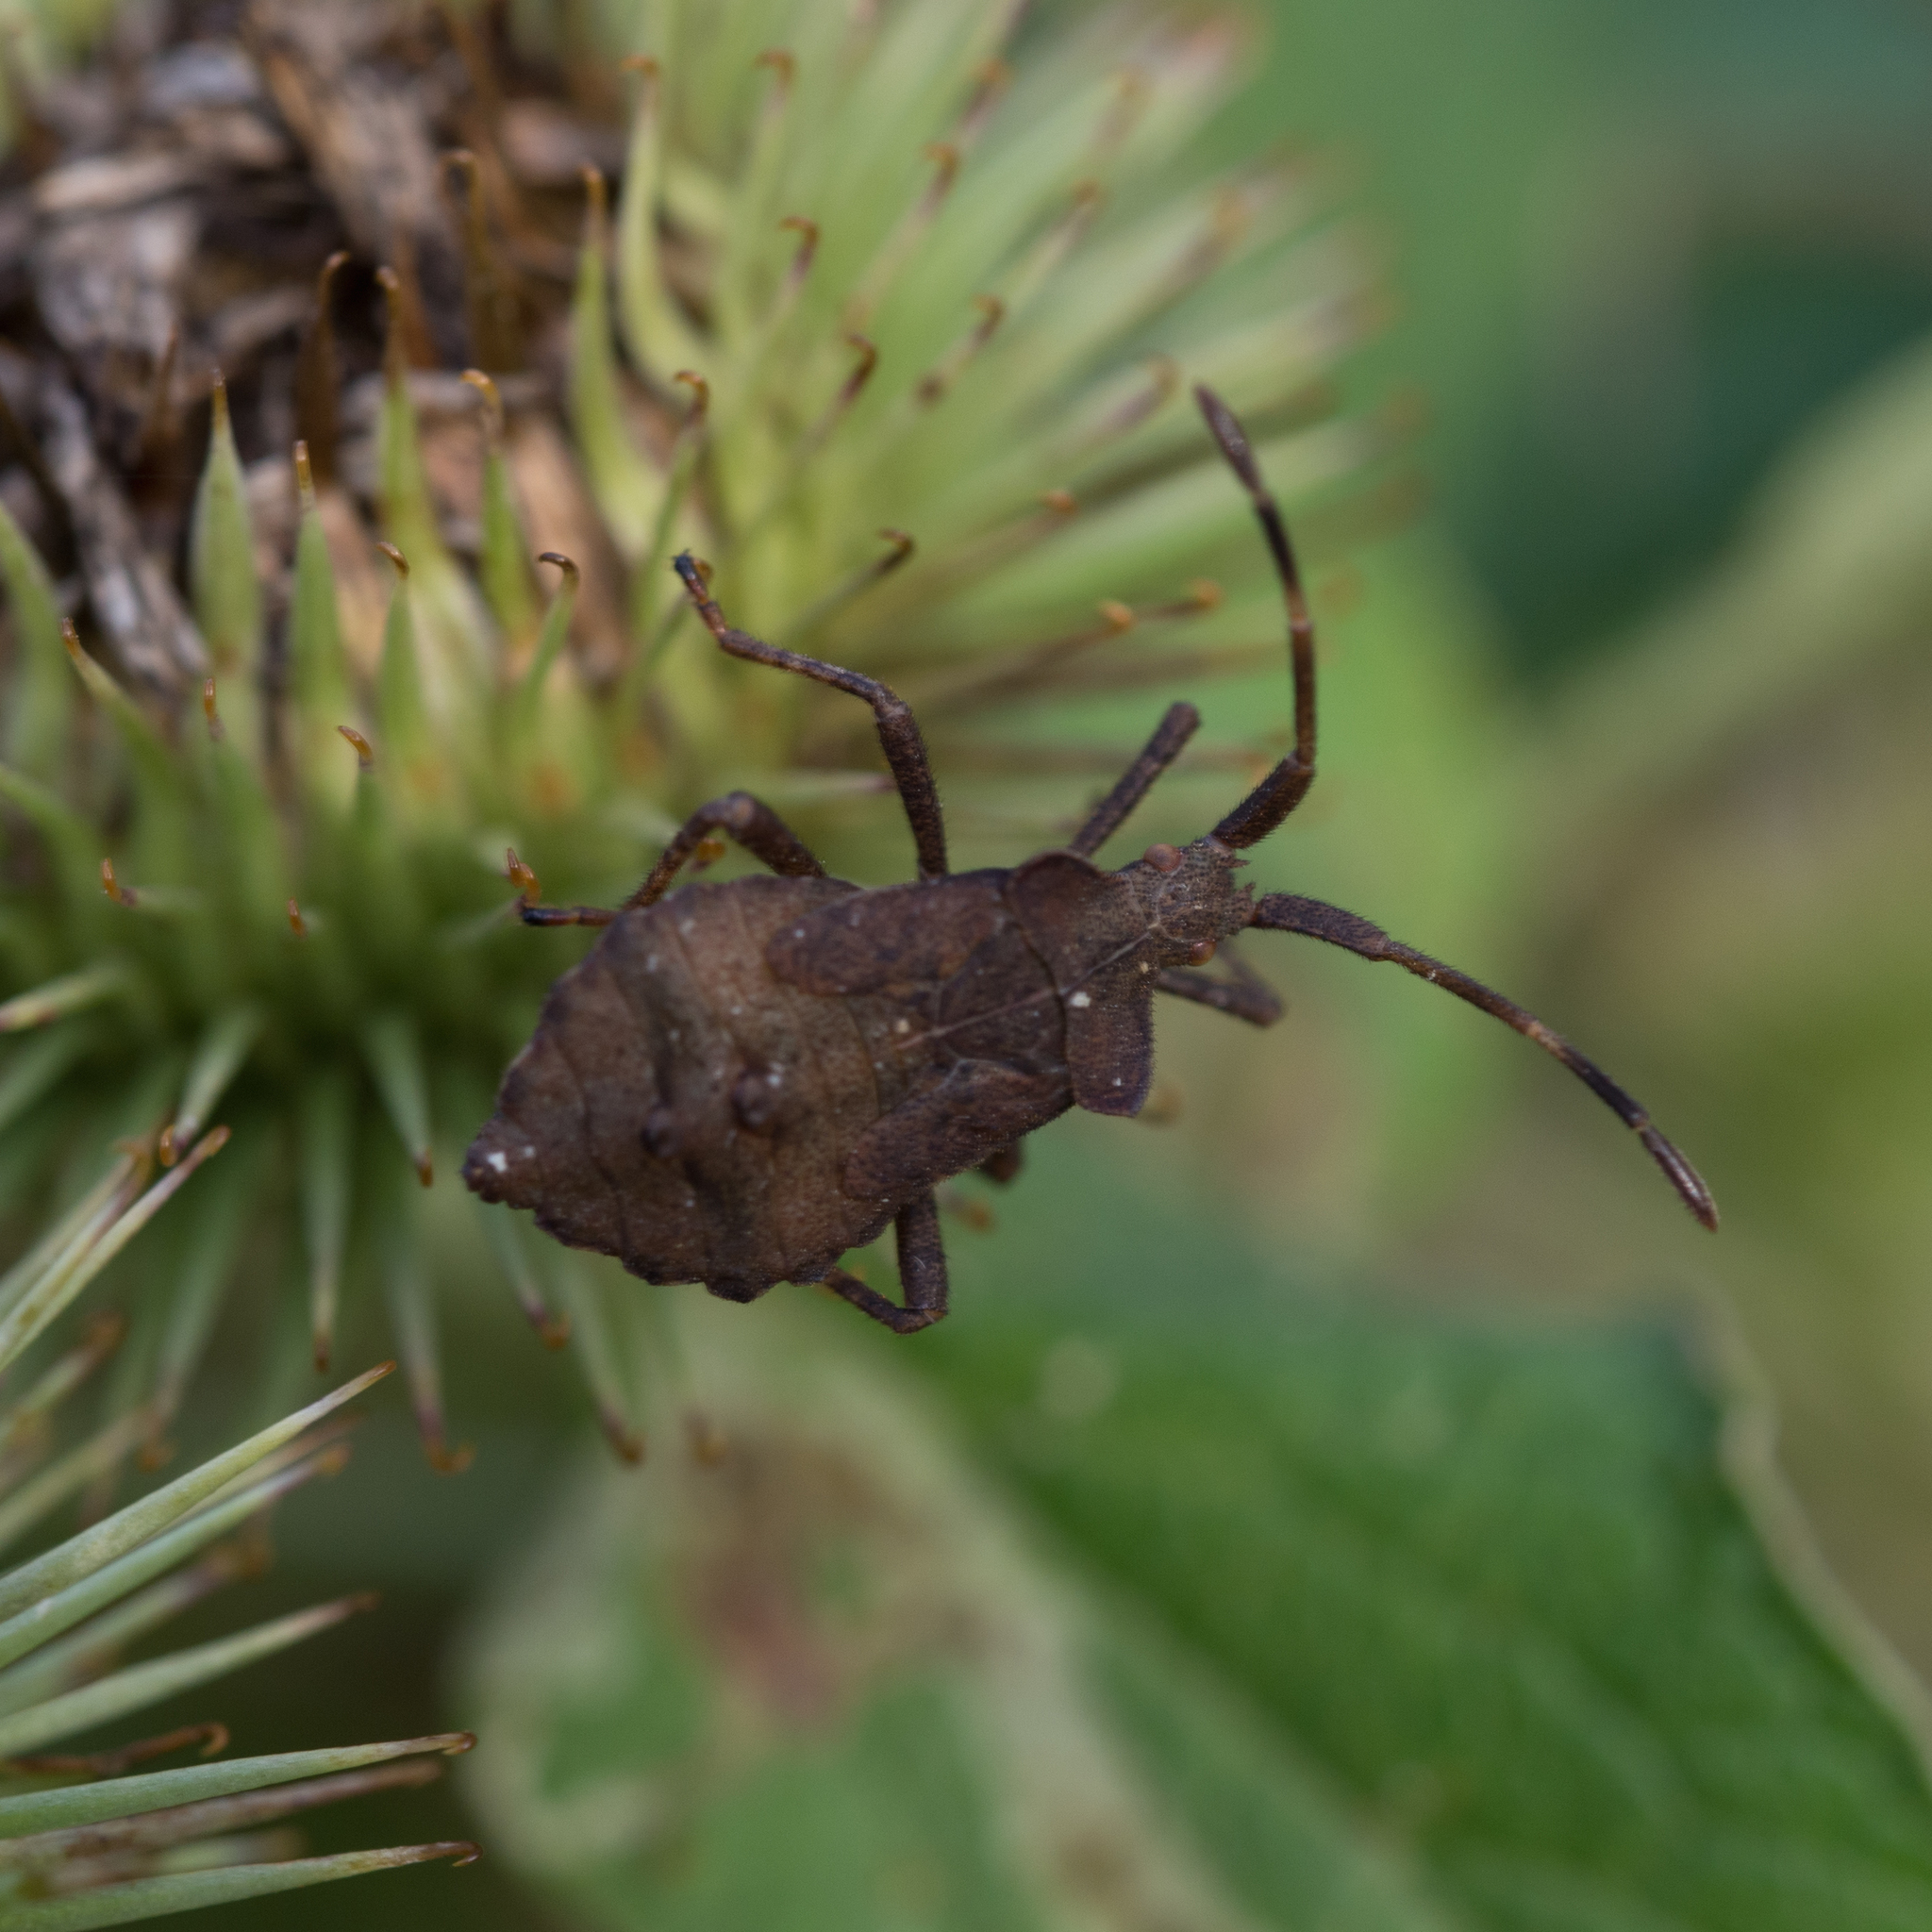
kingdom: Animalia
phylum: Arthropoda
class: Insecta
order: Hemiptera
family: Coreidae
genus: Coreus
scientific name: Coreus marginatus
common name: Dock bug
